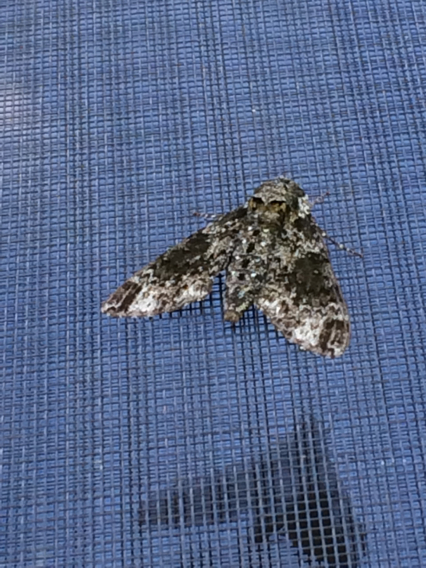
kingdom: Animalia
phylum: Arthropoda
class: Insecta
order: Lepidoptera
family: Sphingidae
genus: Manduca
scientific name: Manduca rustica
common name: Rustic sphinx
